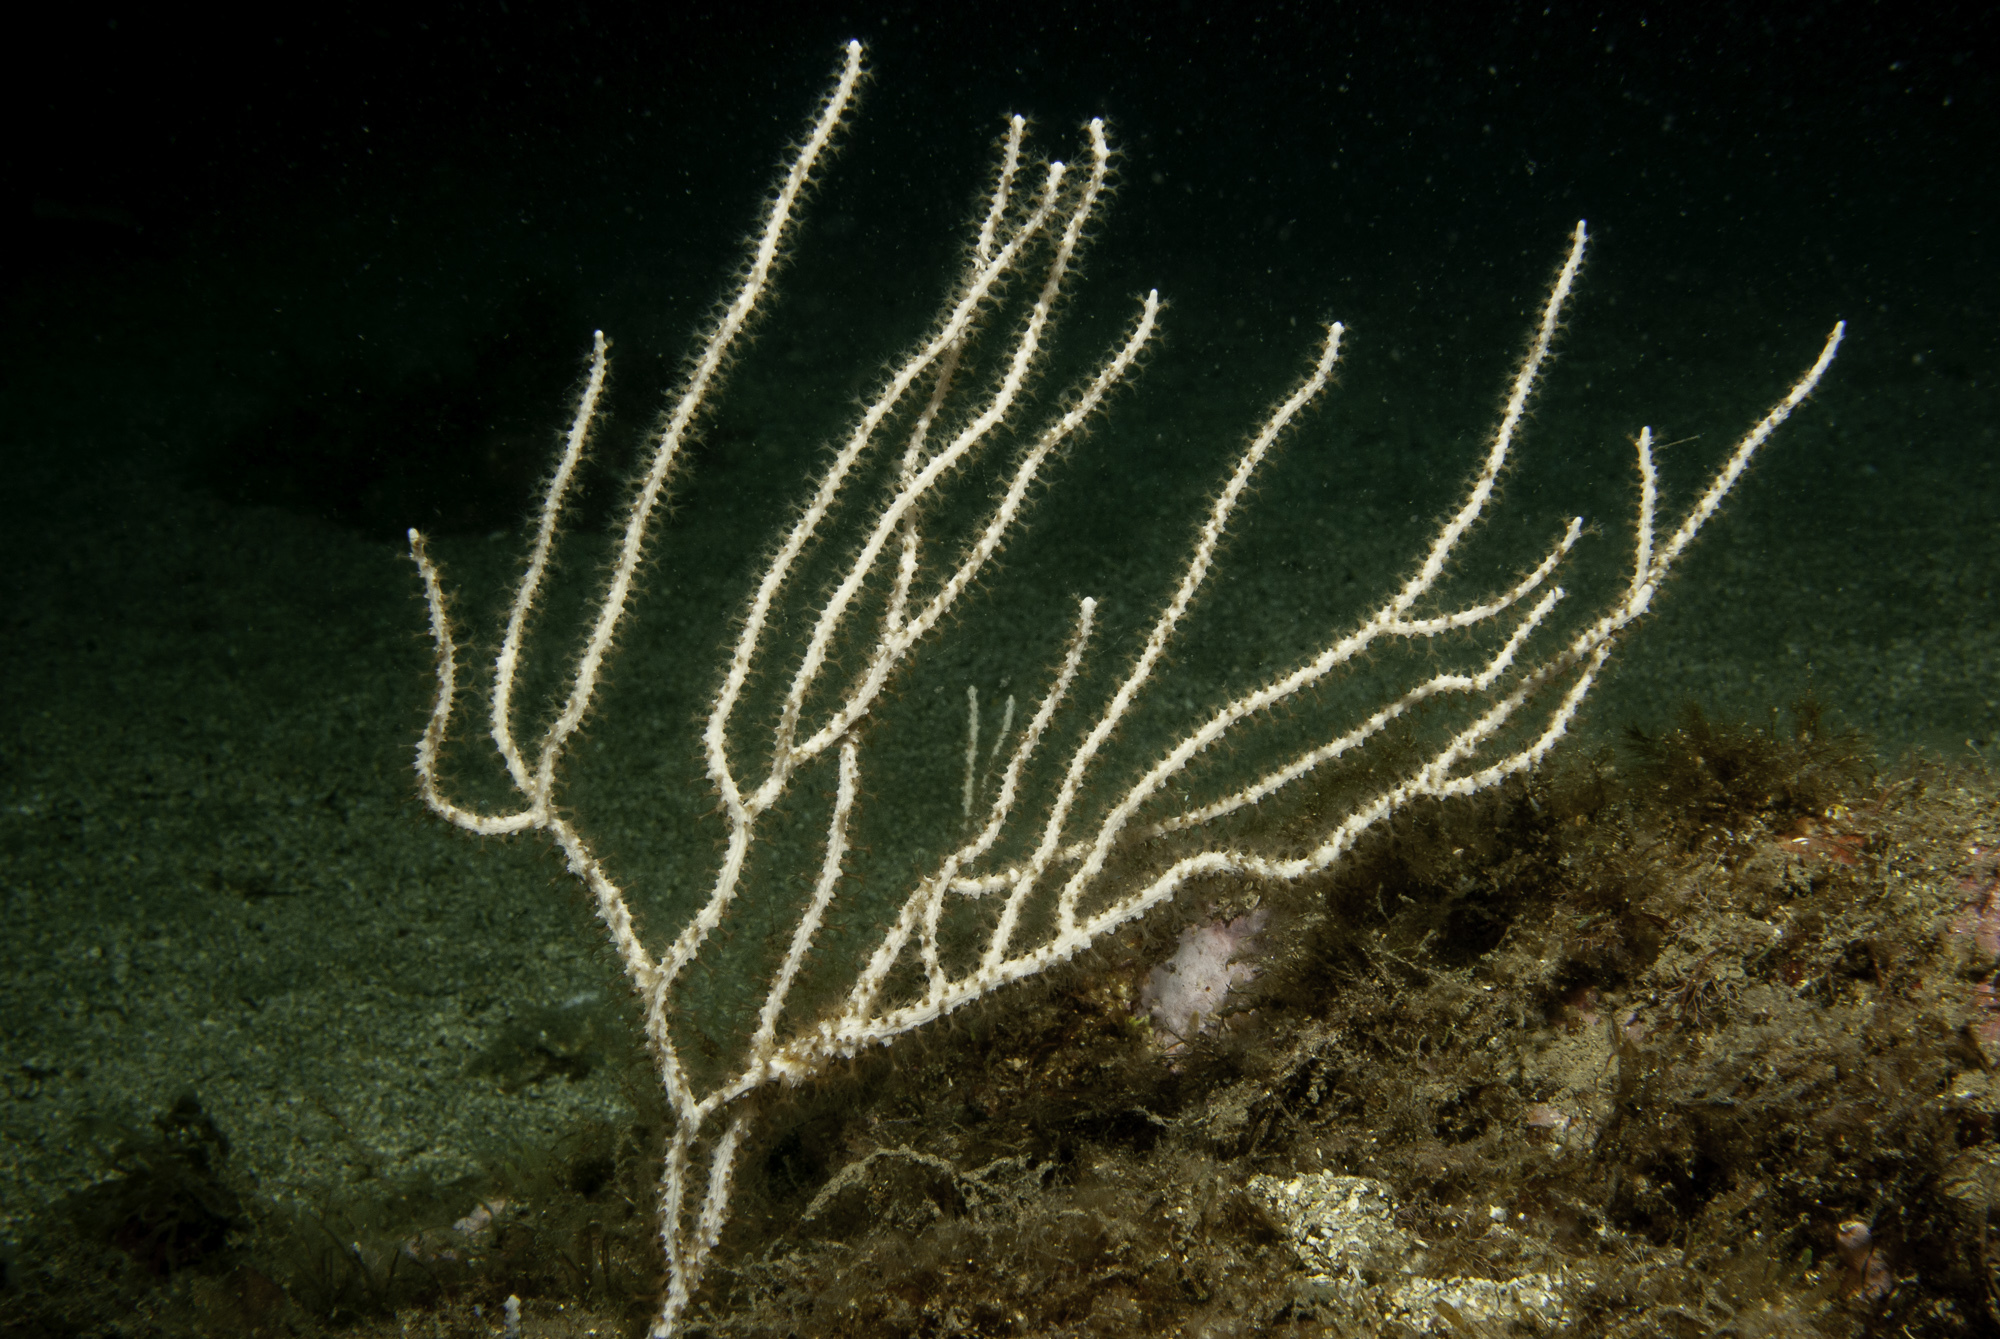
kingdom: Animalia
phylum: Cnidaria
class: Anthozoa
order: Malacalcyonacea
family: Eunicellidae
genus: Eunicella
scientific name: Eunicella singularis
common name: White horny coral
